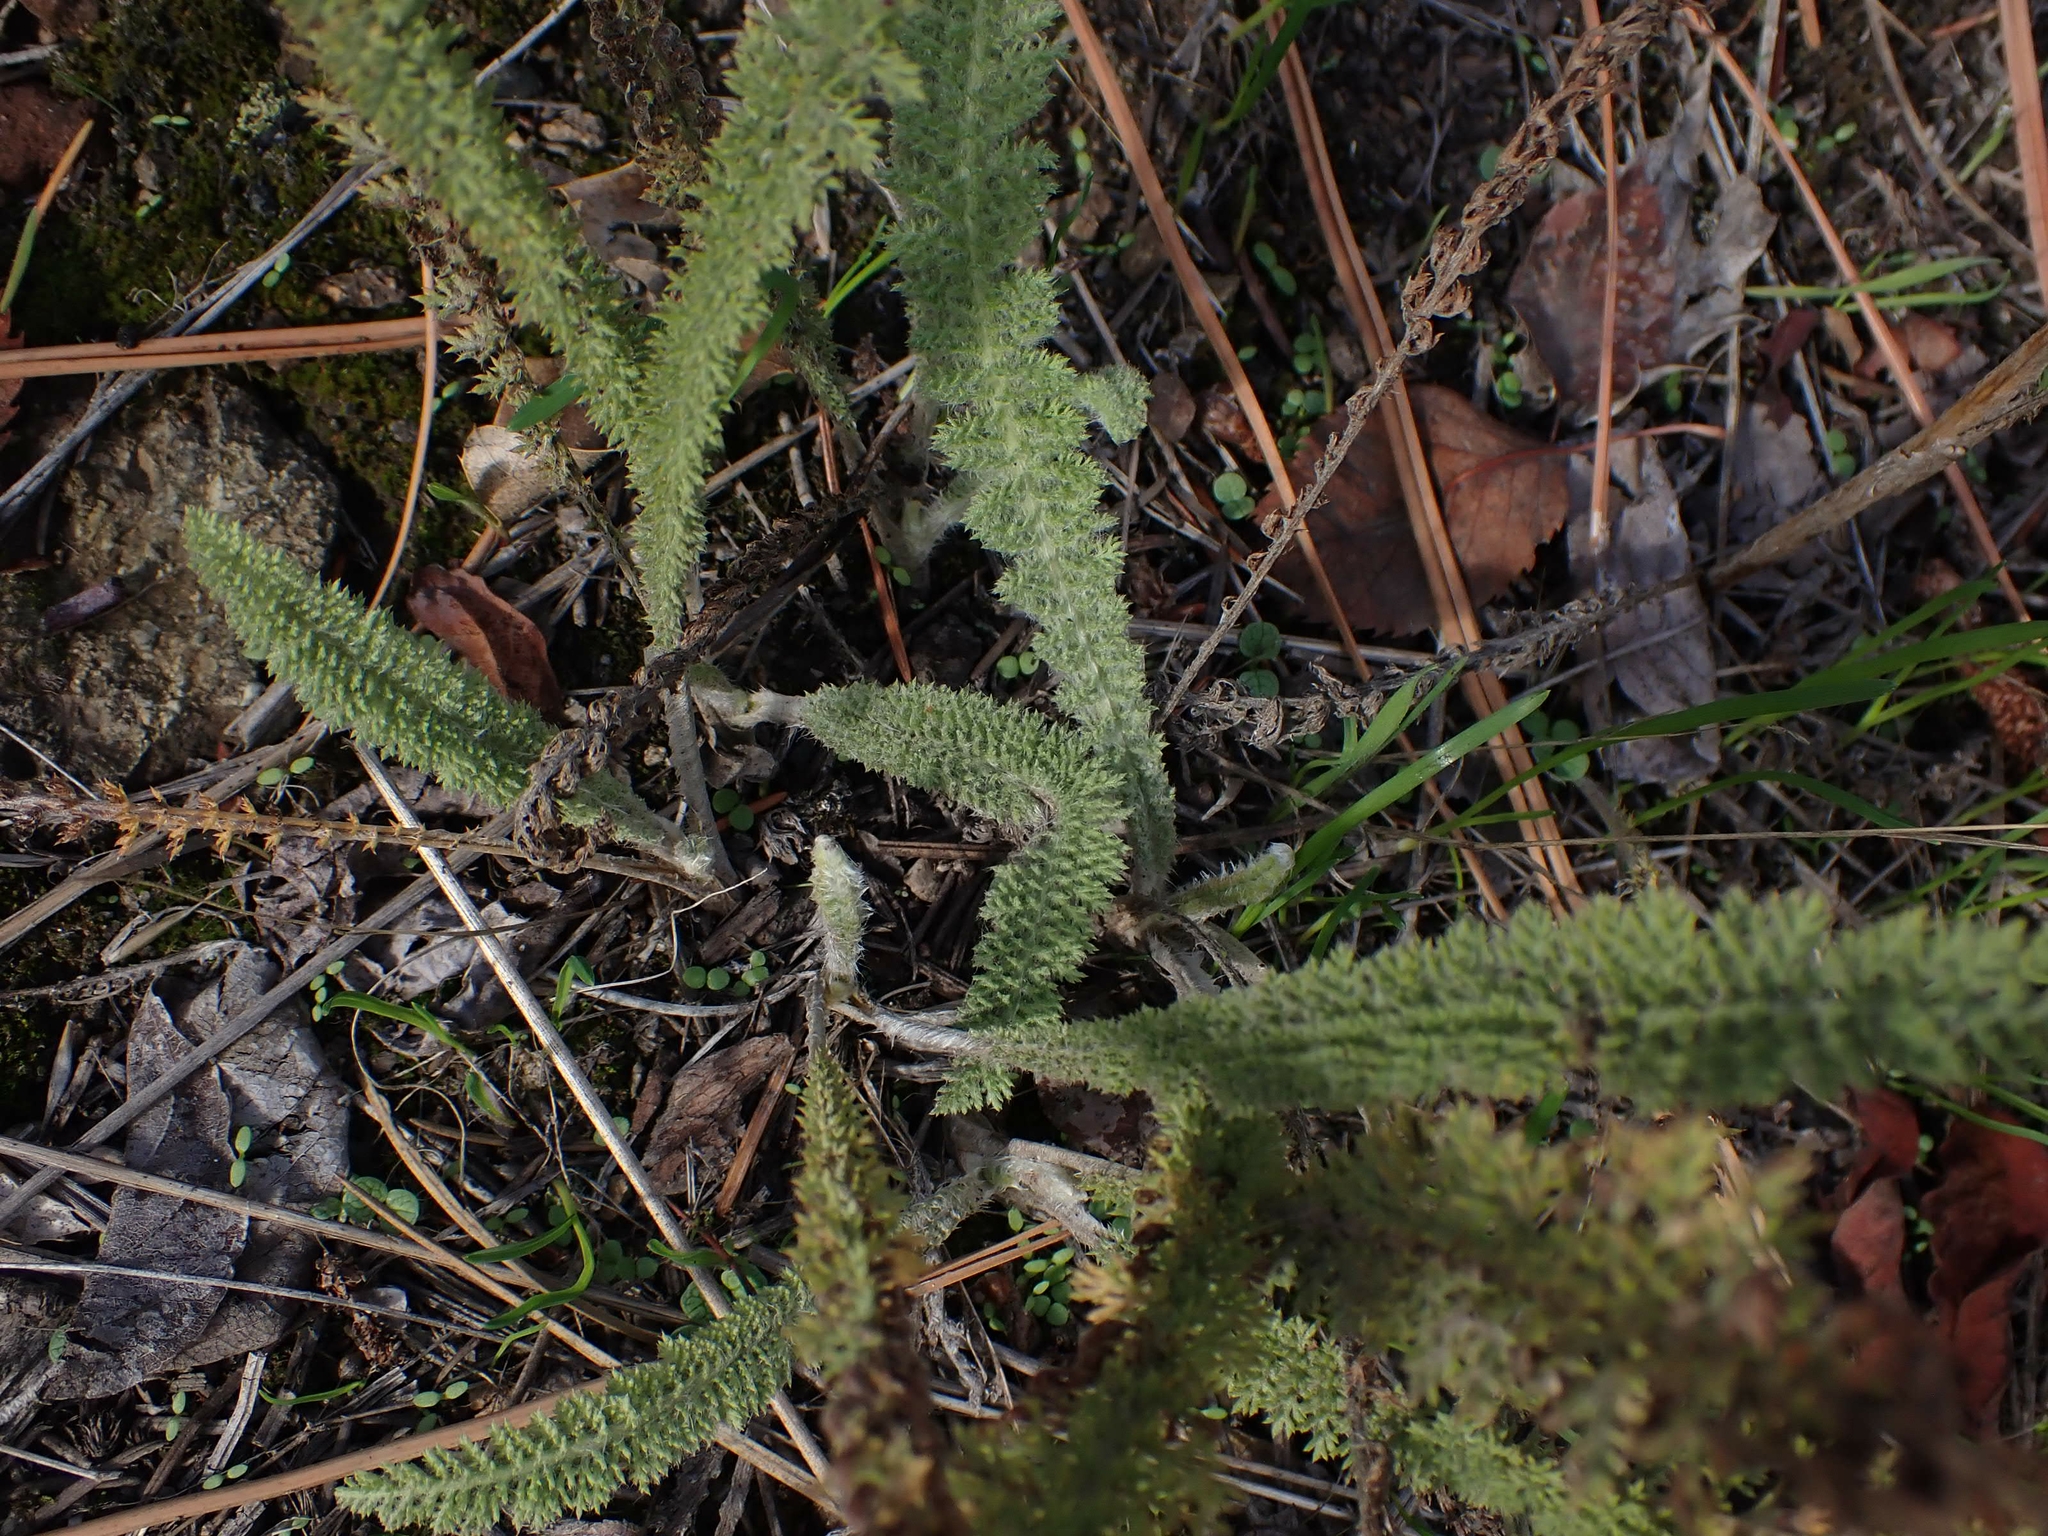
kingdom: Plantae
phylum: Tracheophyta
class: Magnoliopsida
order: Asterales
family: Asteraceae
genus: Achillea
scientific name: Achillea millefolium
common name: Yarrow
